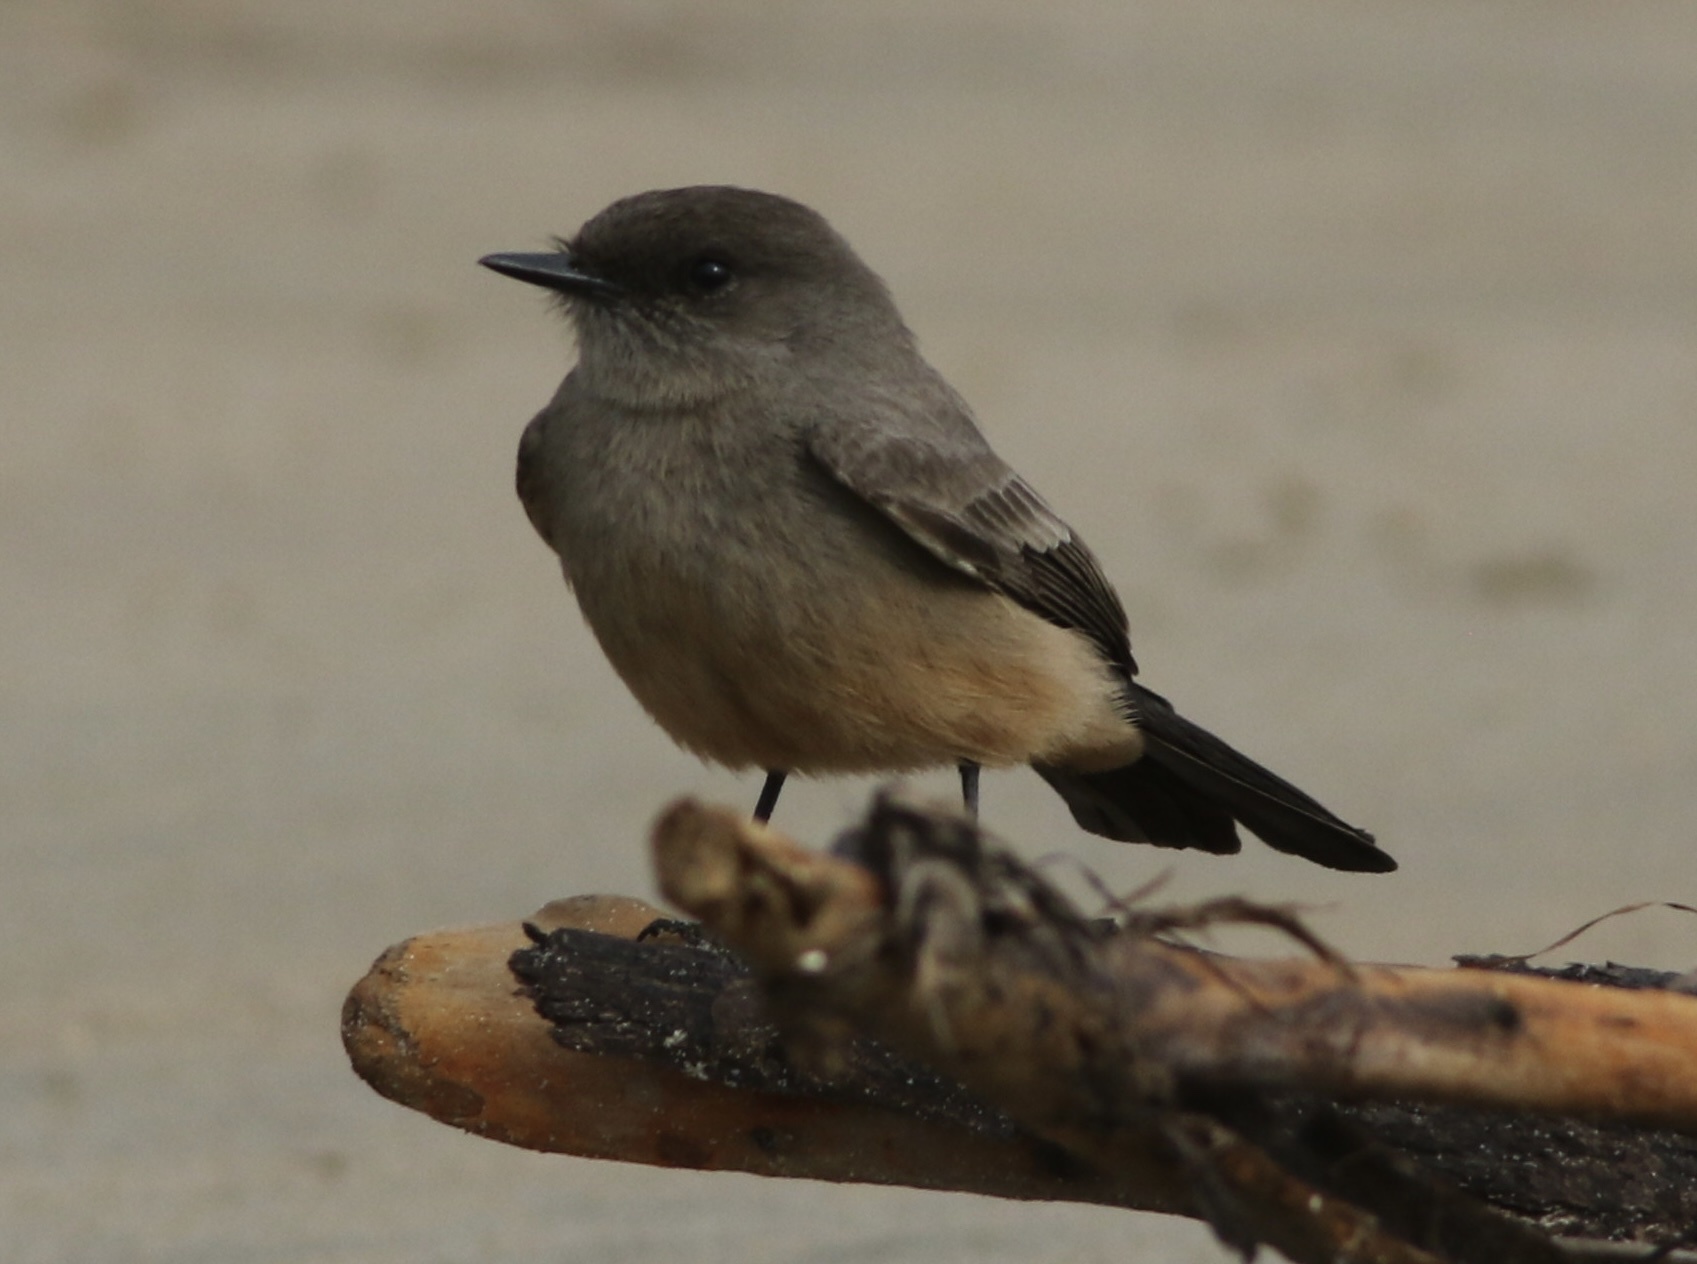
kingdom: Animalia
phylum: Chordata
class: Aves
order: Passeriformes
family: Tyrannidae
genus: Sayornis
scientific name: Sayornis saya
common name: Say's phoebe
